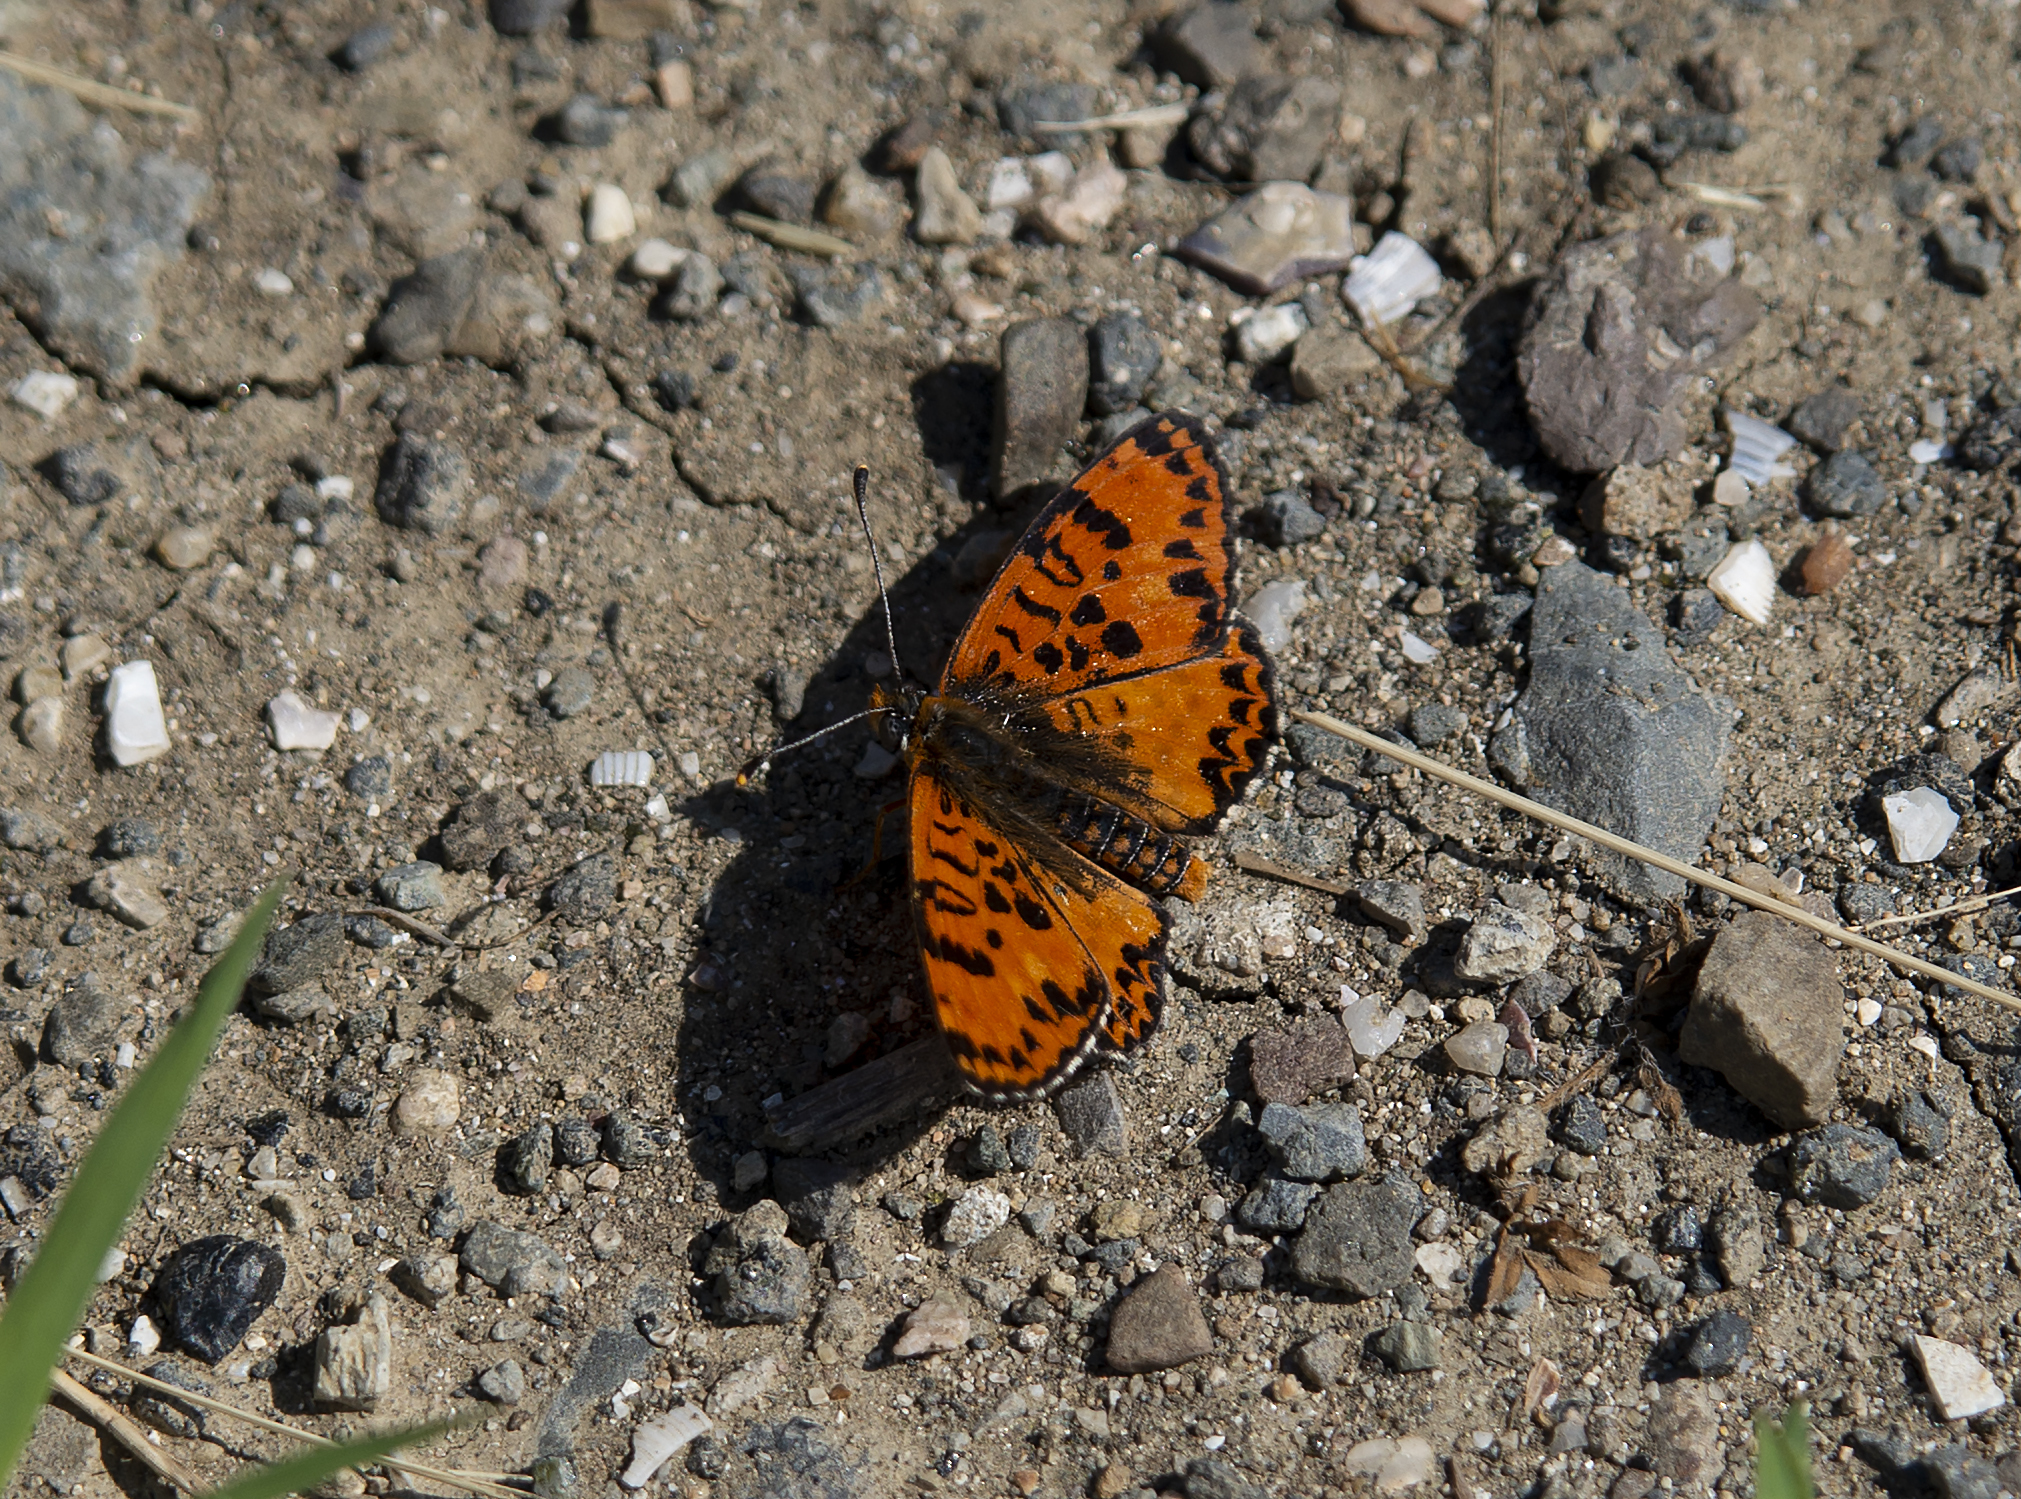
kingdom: Animalia
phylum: Arthropoda
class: Insecta
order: Lepidoptera
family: Nymphalidae
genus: Melitaea
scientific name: Melitaea didyma
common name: Spotted fritillary
